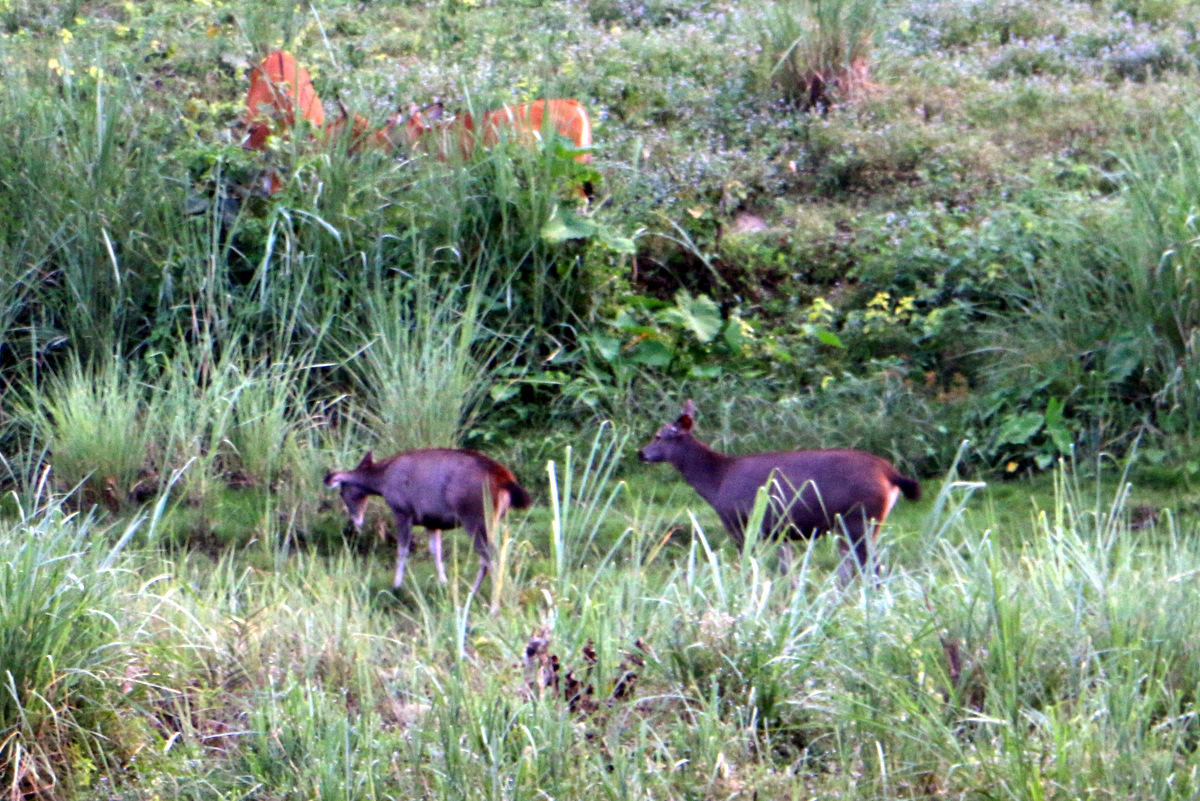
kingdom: Animalia
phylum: Chordata
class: Mammalia
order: Artiodactyla
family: Cervidae
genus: Rusa
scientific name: Rusa unicolor
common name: Sambar
